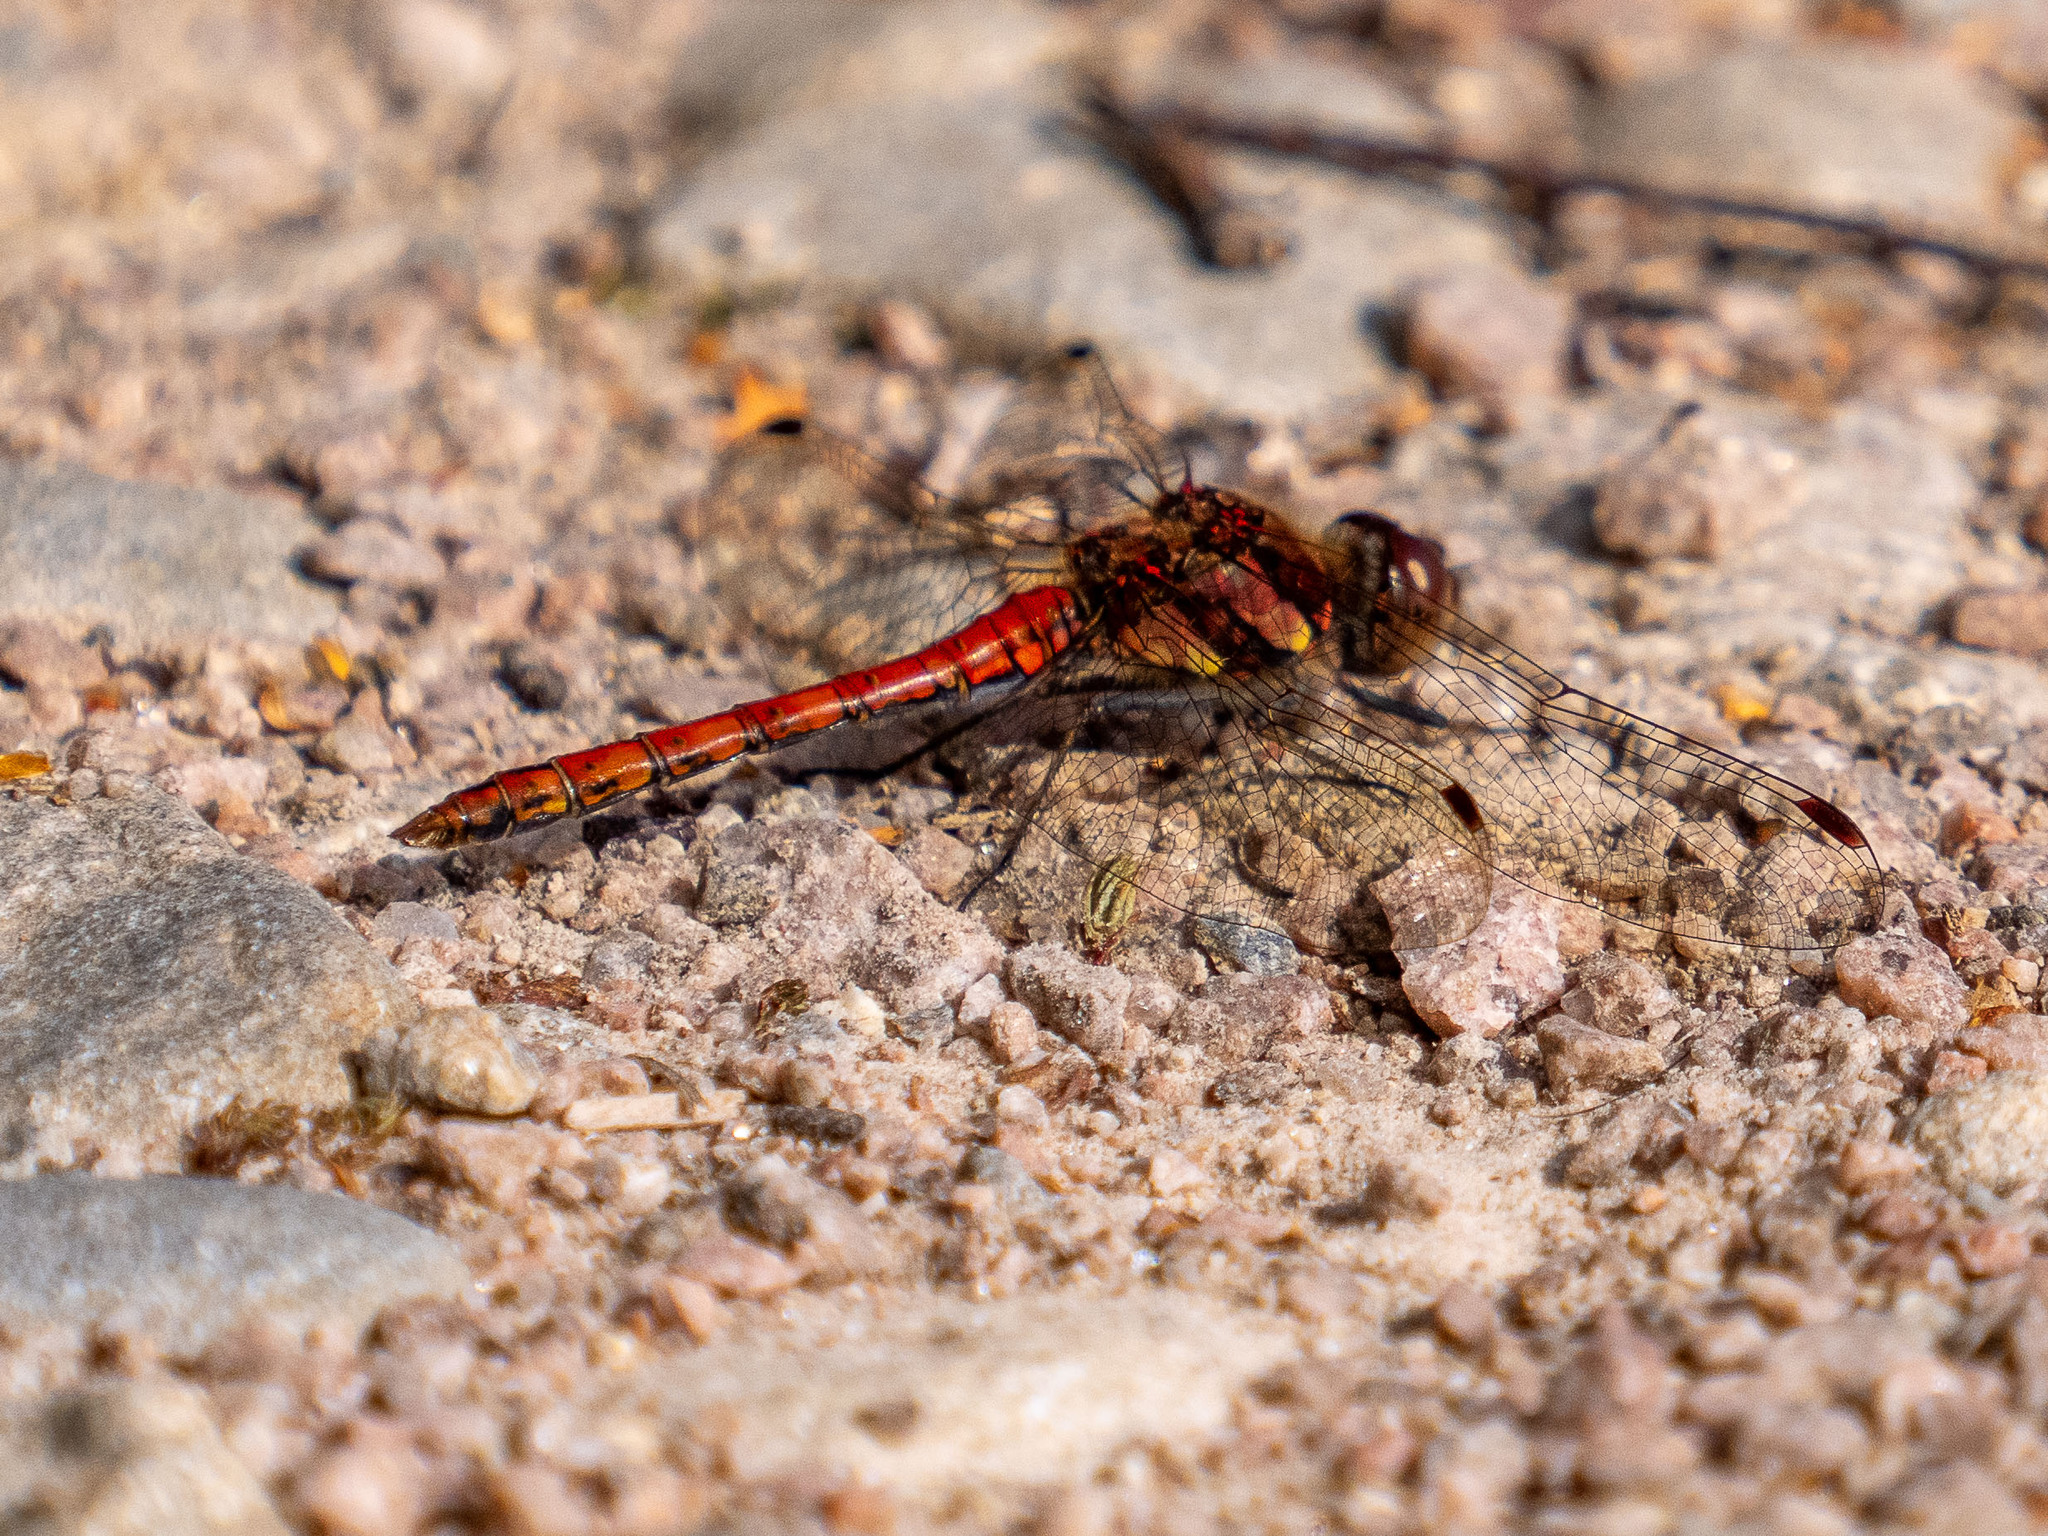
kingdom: Animalia
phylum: Arthropoda
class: Insecta
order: Odonata
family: Libellulidae
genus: Sympetrum
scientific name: Sympetrum striolatum
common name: Common darter
